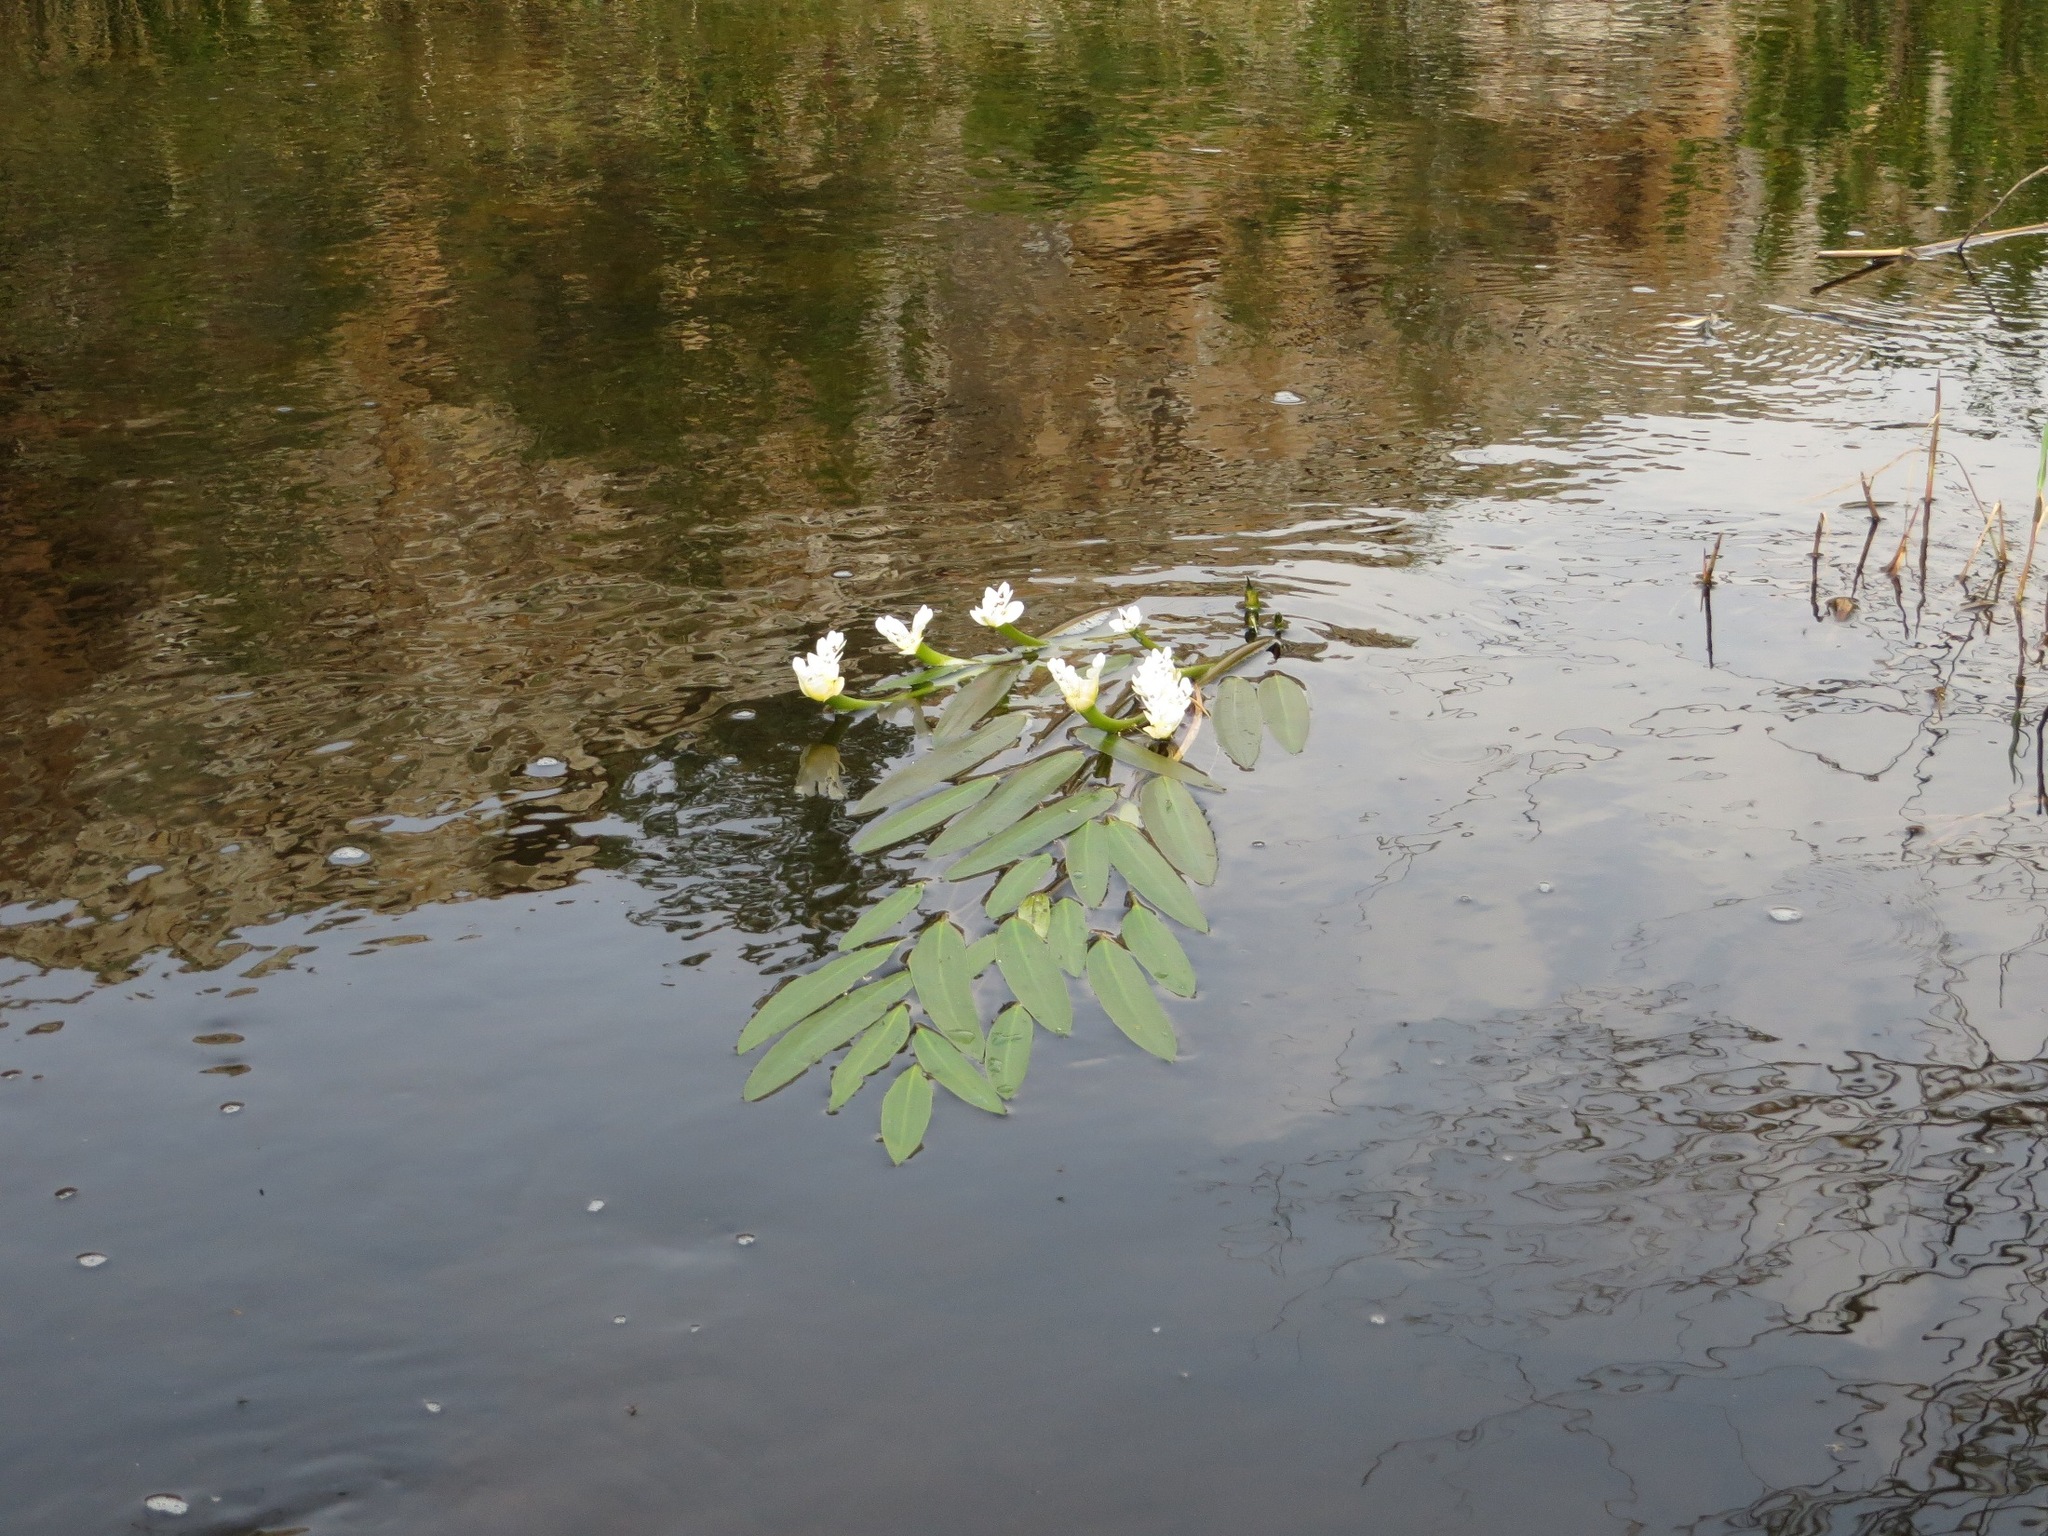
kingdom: Plantae
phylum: Tracheophyta
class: Liliopsida
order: Alismatales
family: Aponogetonaceae
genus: Aponogeton
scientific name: Aponogeton distachyos
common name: Cape-pondweed
